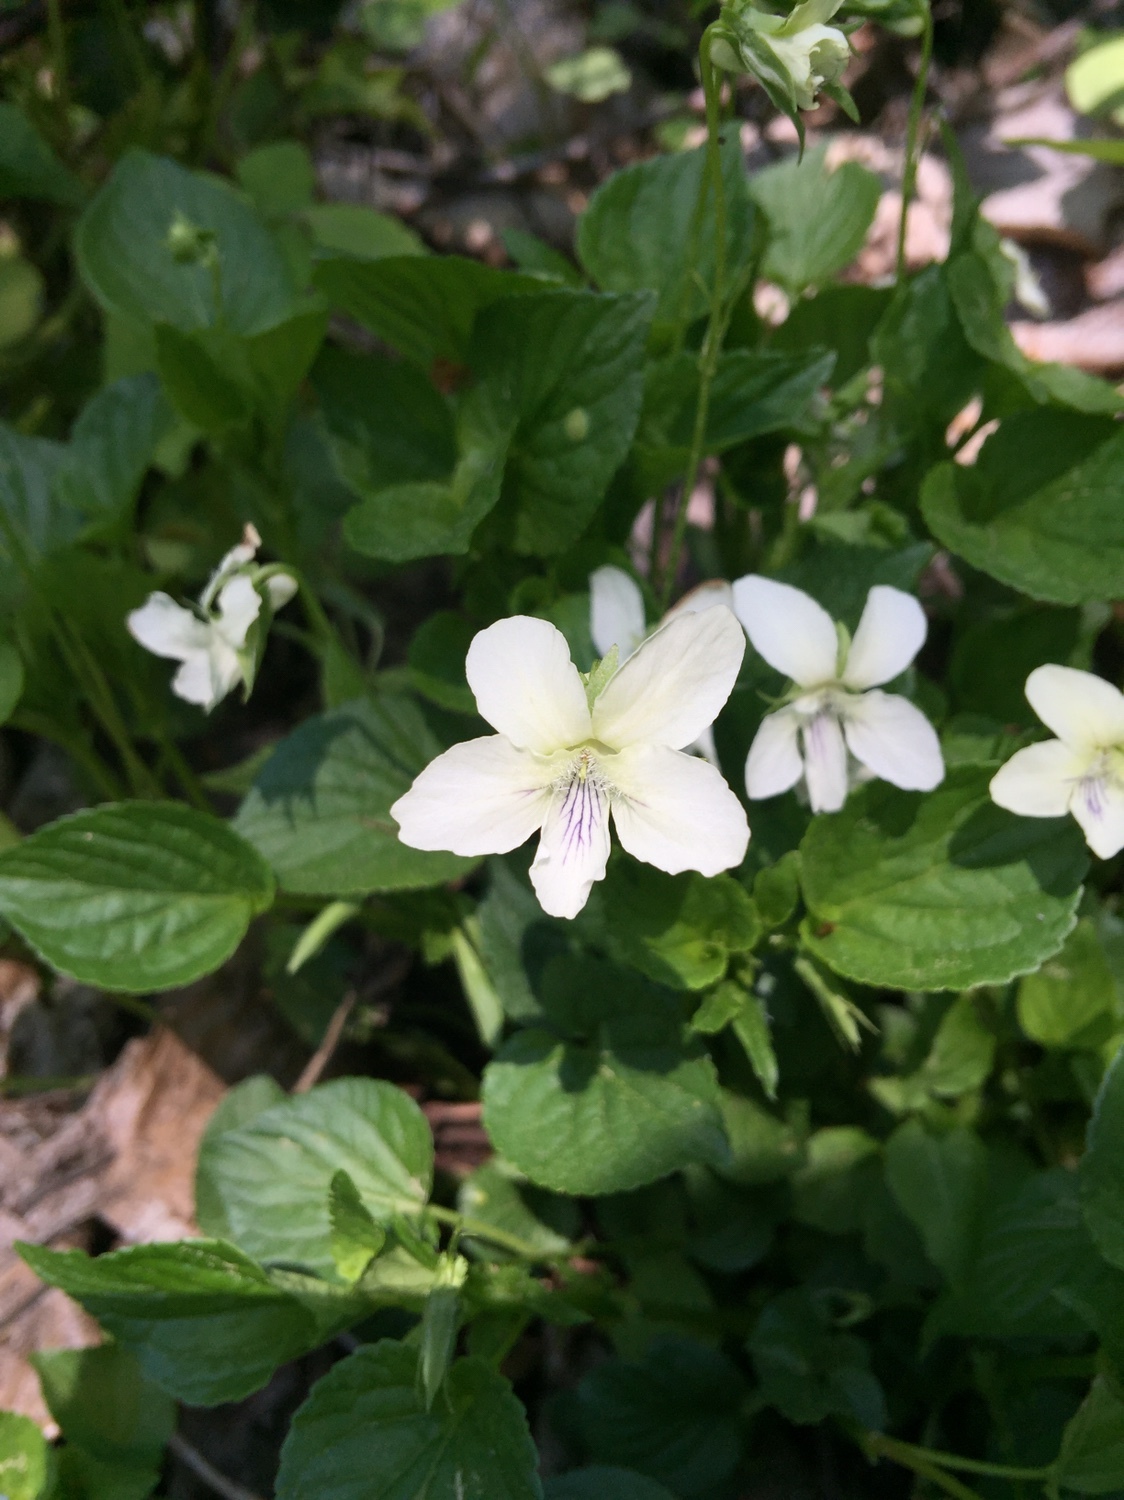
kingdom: Plantae
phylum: Tracheophyta
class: Magnoliopsida
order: Malpighiales
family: Violaceae
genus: Viola
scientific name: Viola striata
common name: Cream violet
